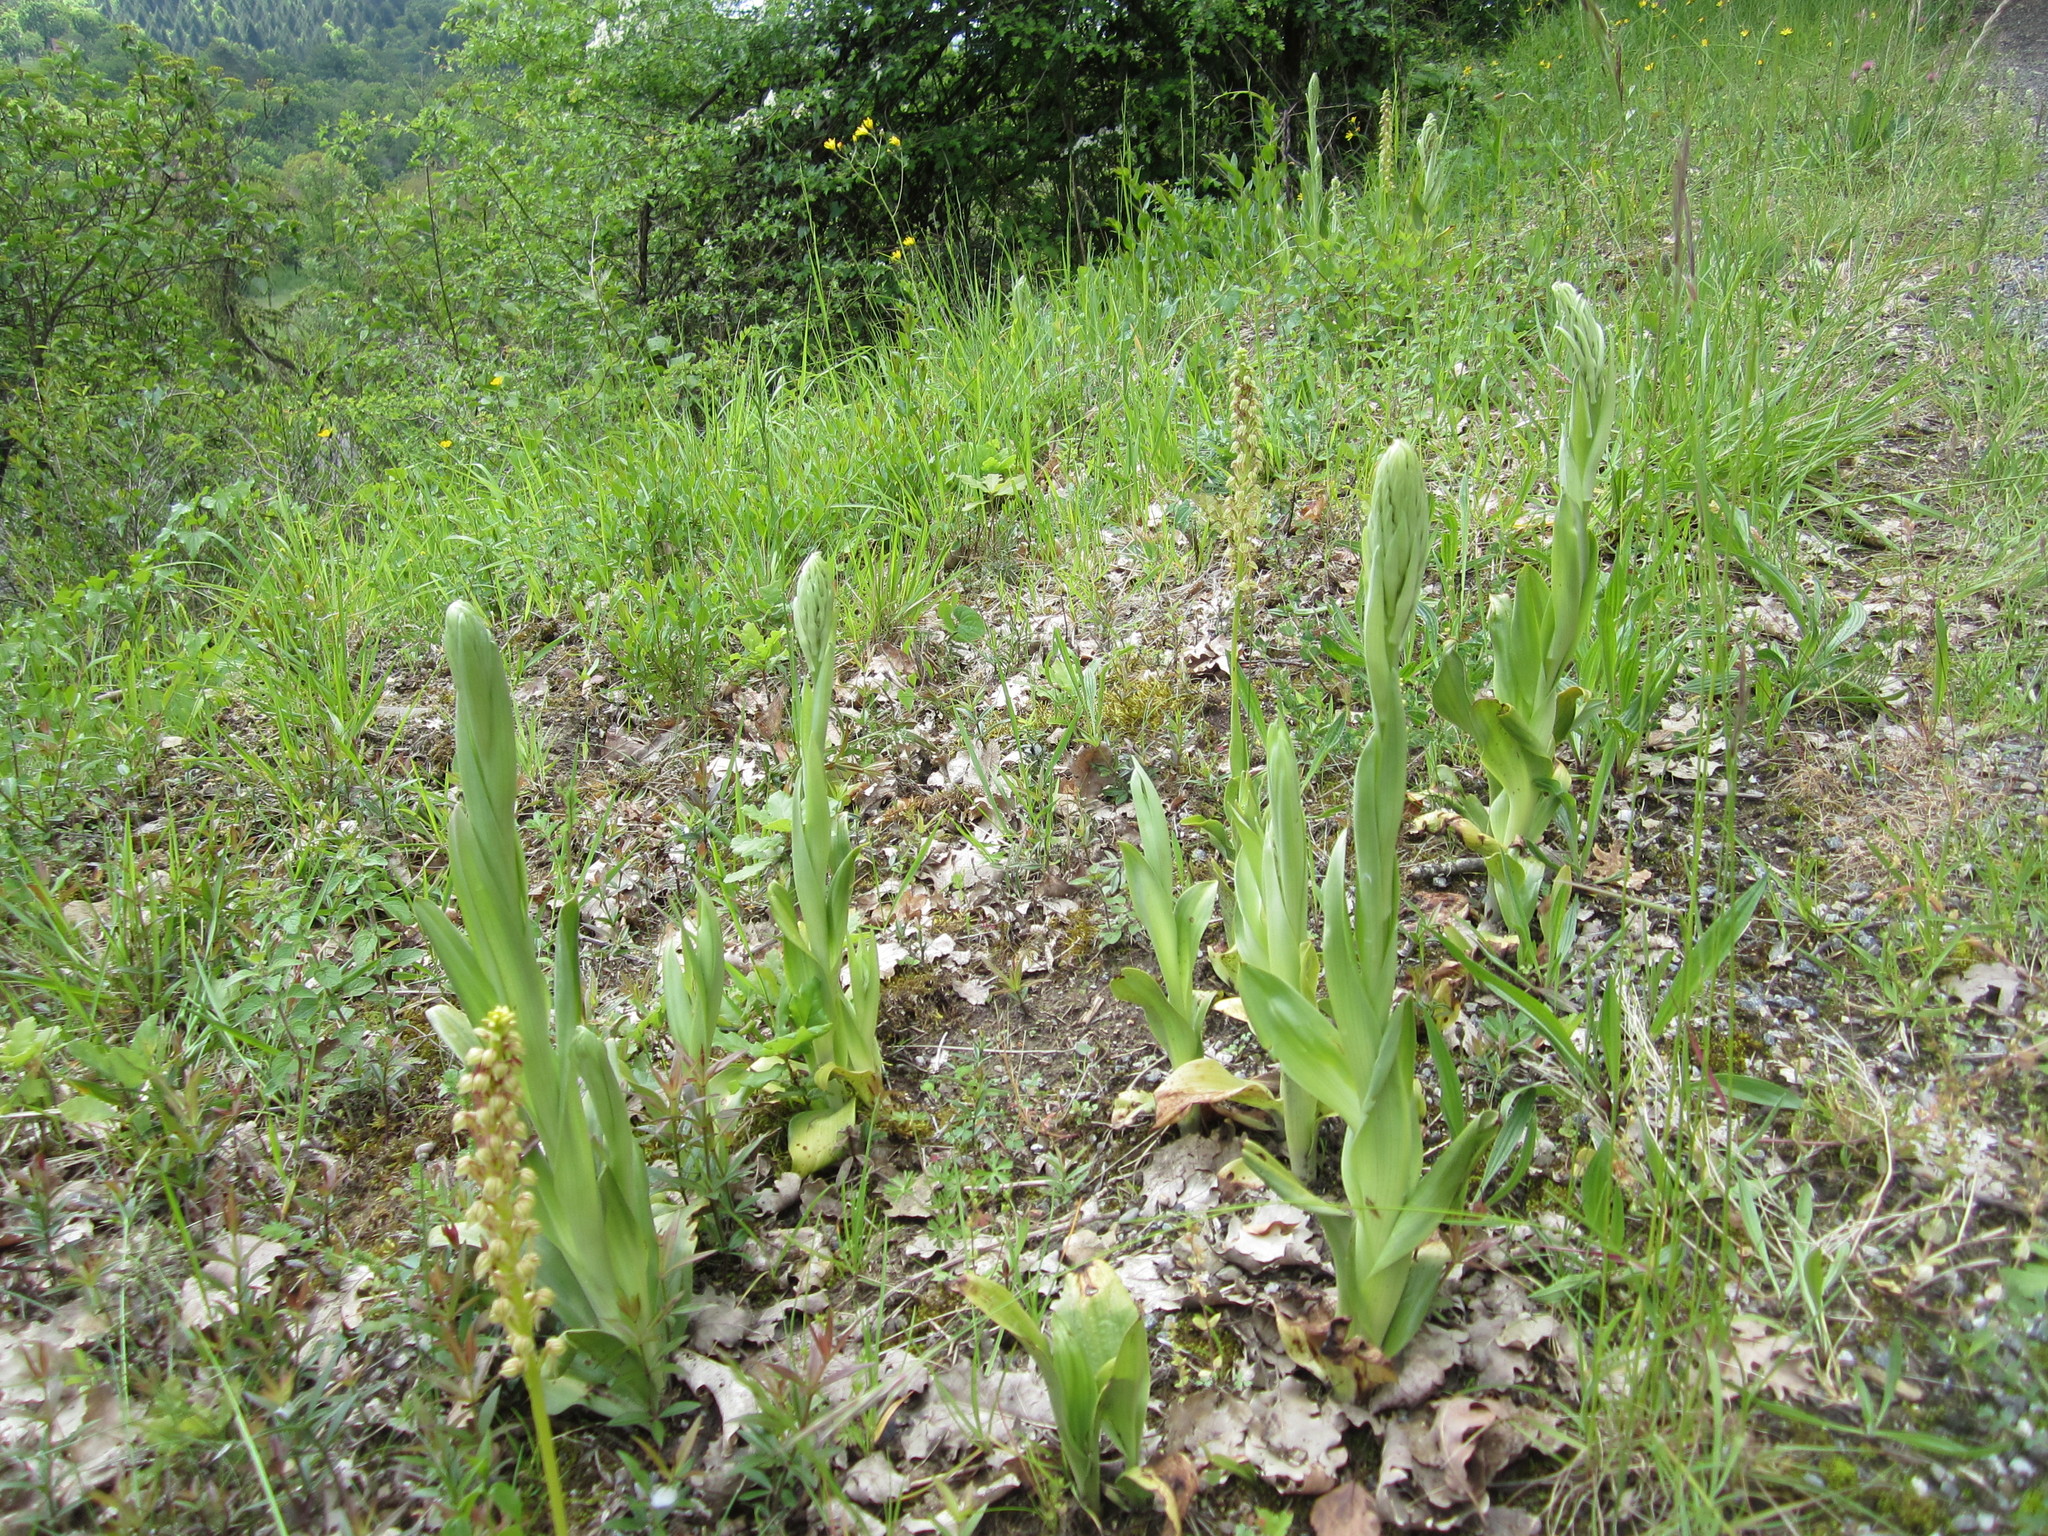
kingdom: Plantae
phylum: Tracheophyta
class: Liliopsida
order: Asparagales
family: Orchidaceae
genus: Himantoglossum
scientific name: Himantoglossum hircinum
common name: Lizard orchid
